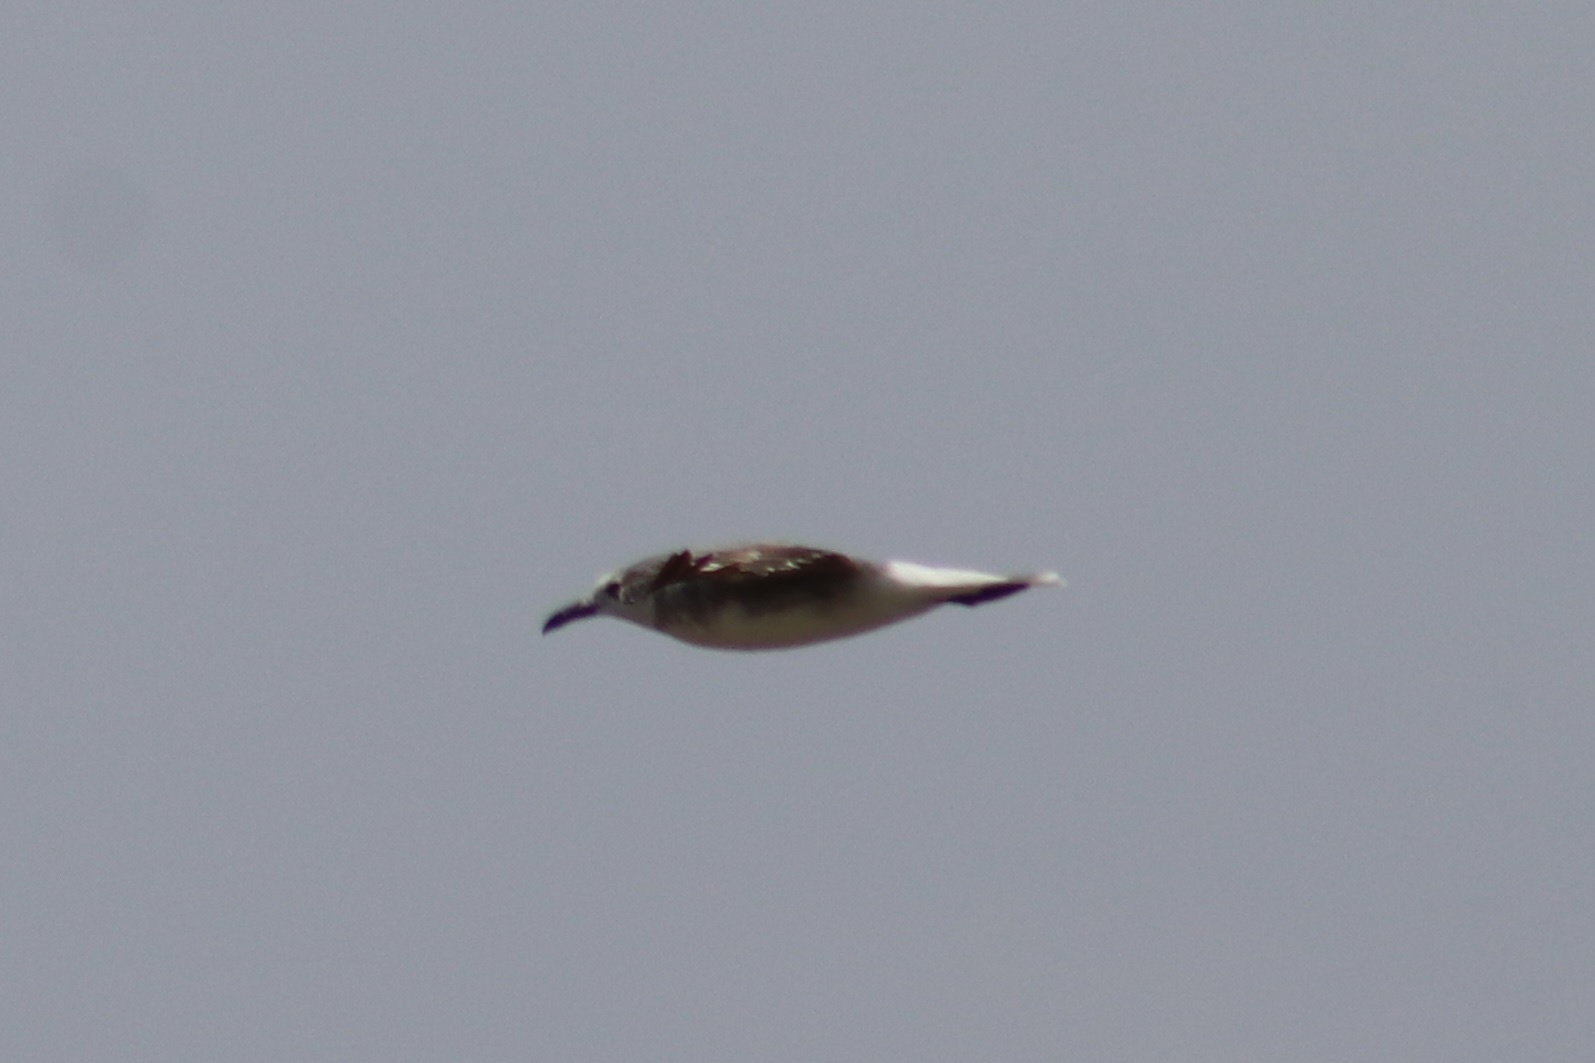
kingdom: Animalia
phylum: Chordata
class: Aves
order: Charadriiformes
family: Laridae
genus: Leucophaeus
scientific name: Leucophaeus atricilla
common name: Laughing gull
